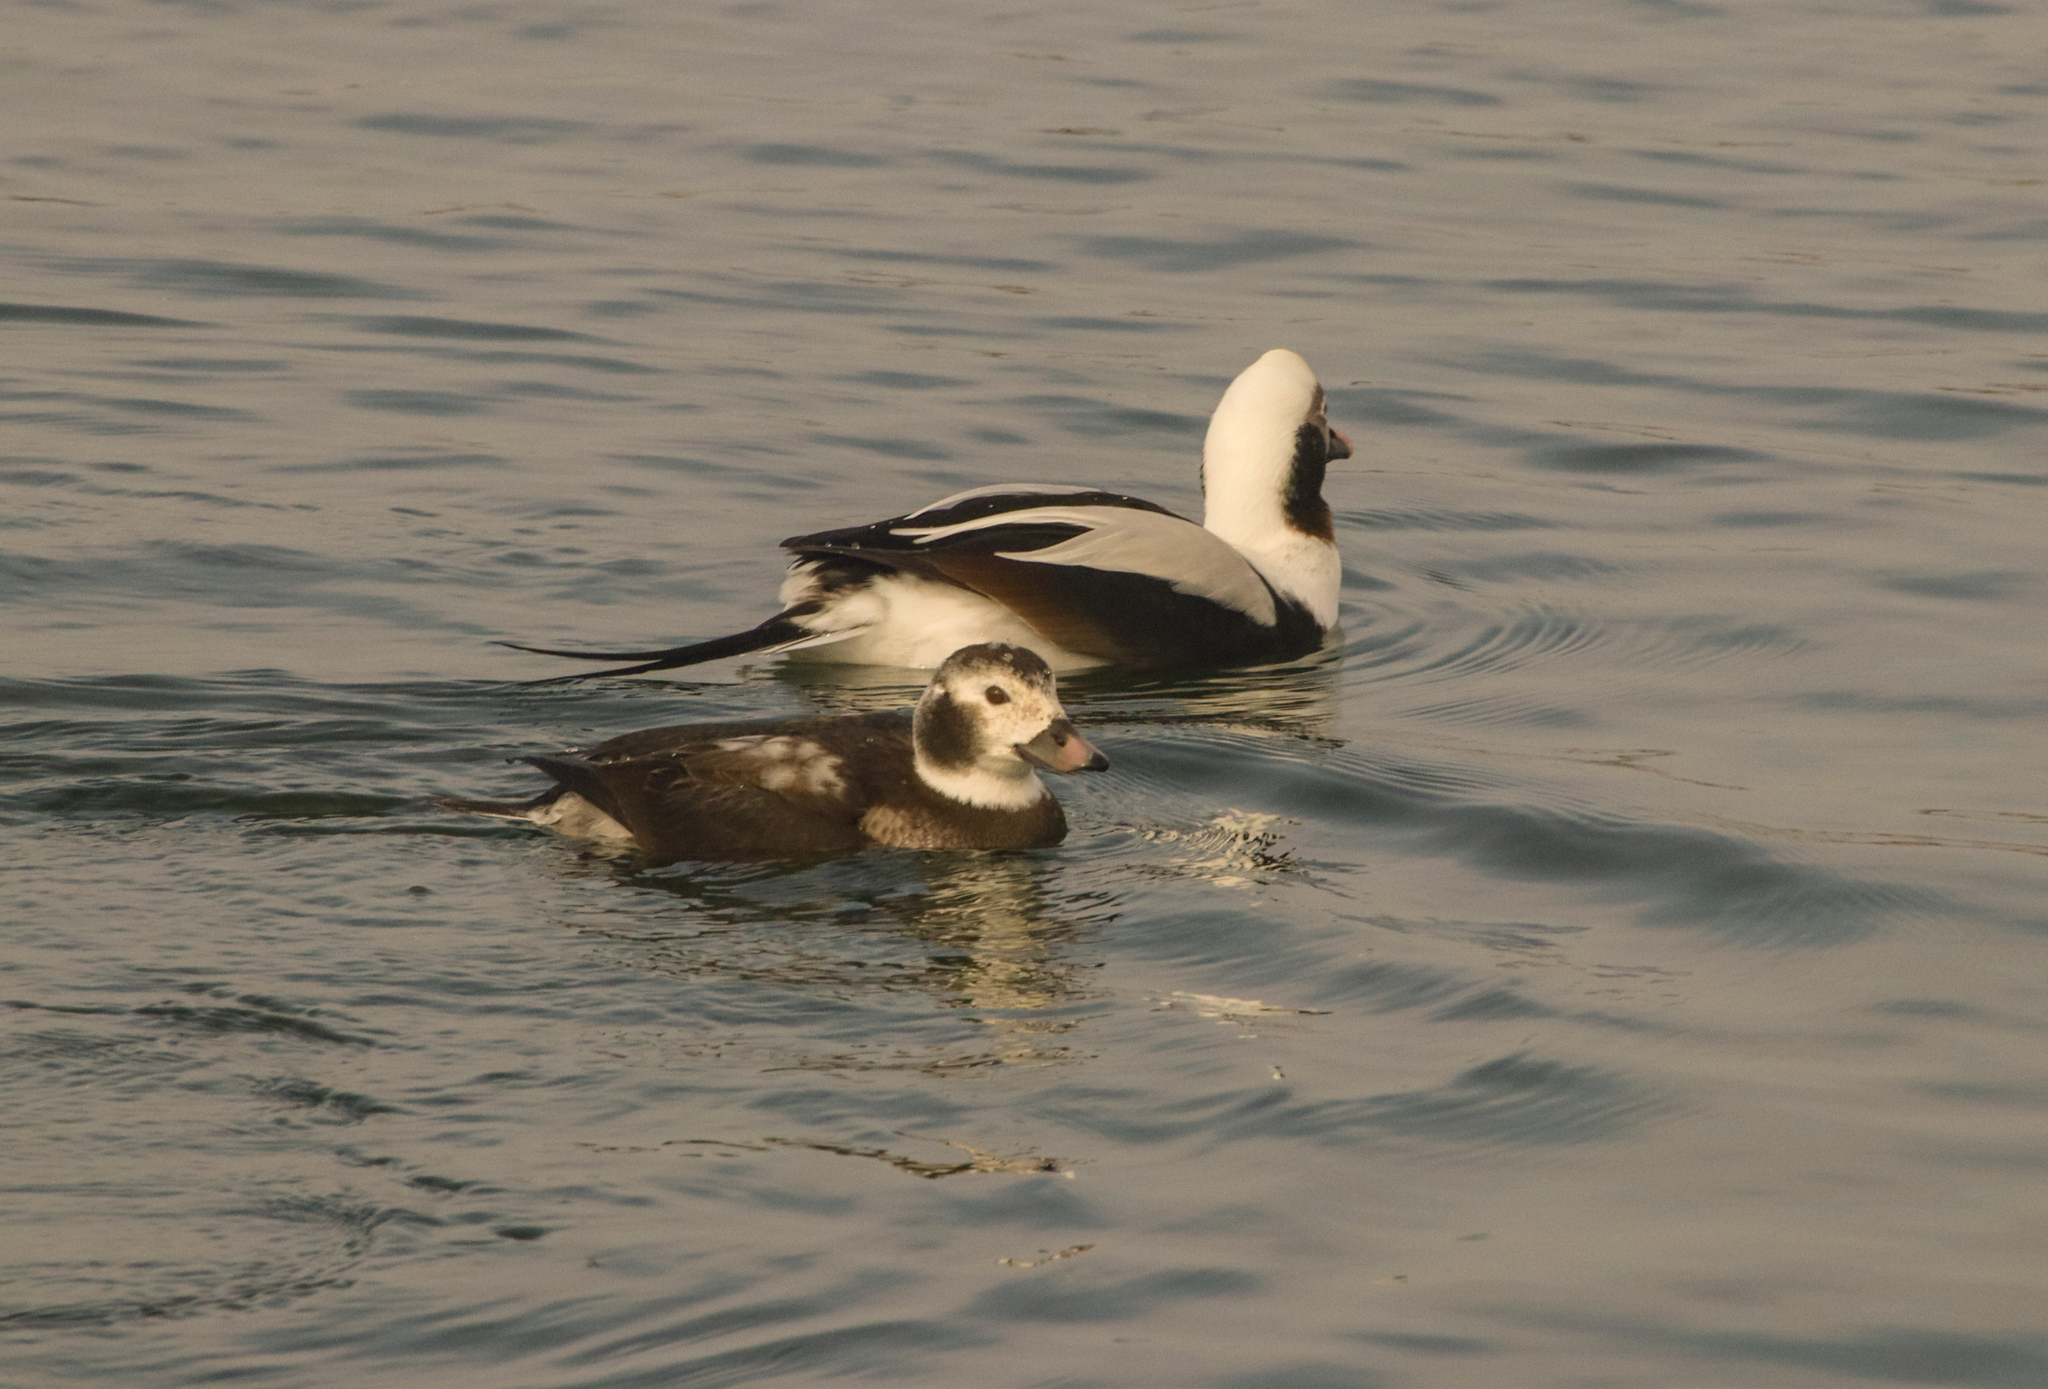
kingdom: Animalia
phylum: Chordata
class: Aves
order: Anseriformes
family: Anatidae
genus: Clangula
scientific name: Clangula hyemalis
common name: Long-tailed duck
